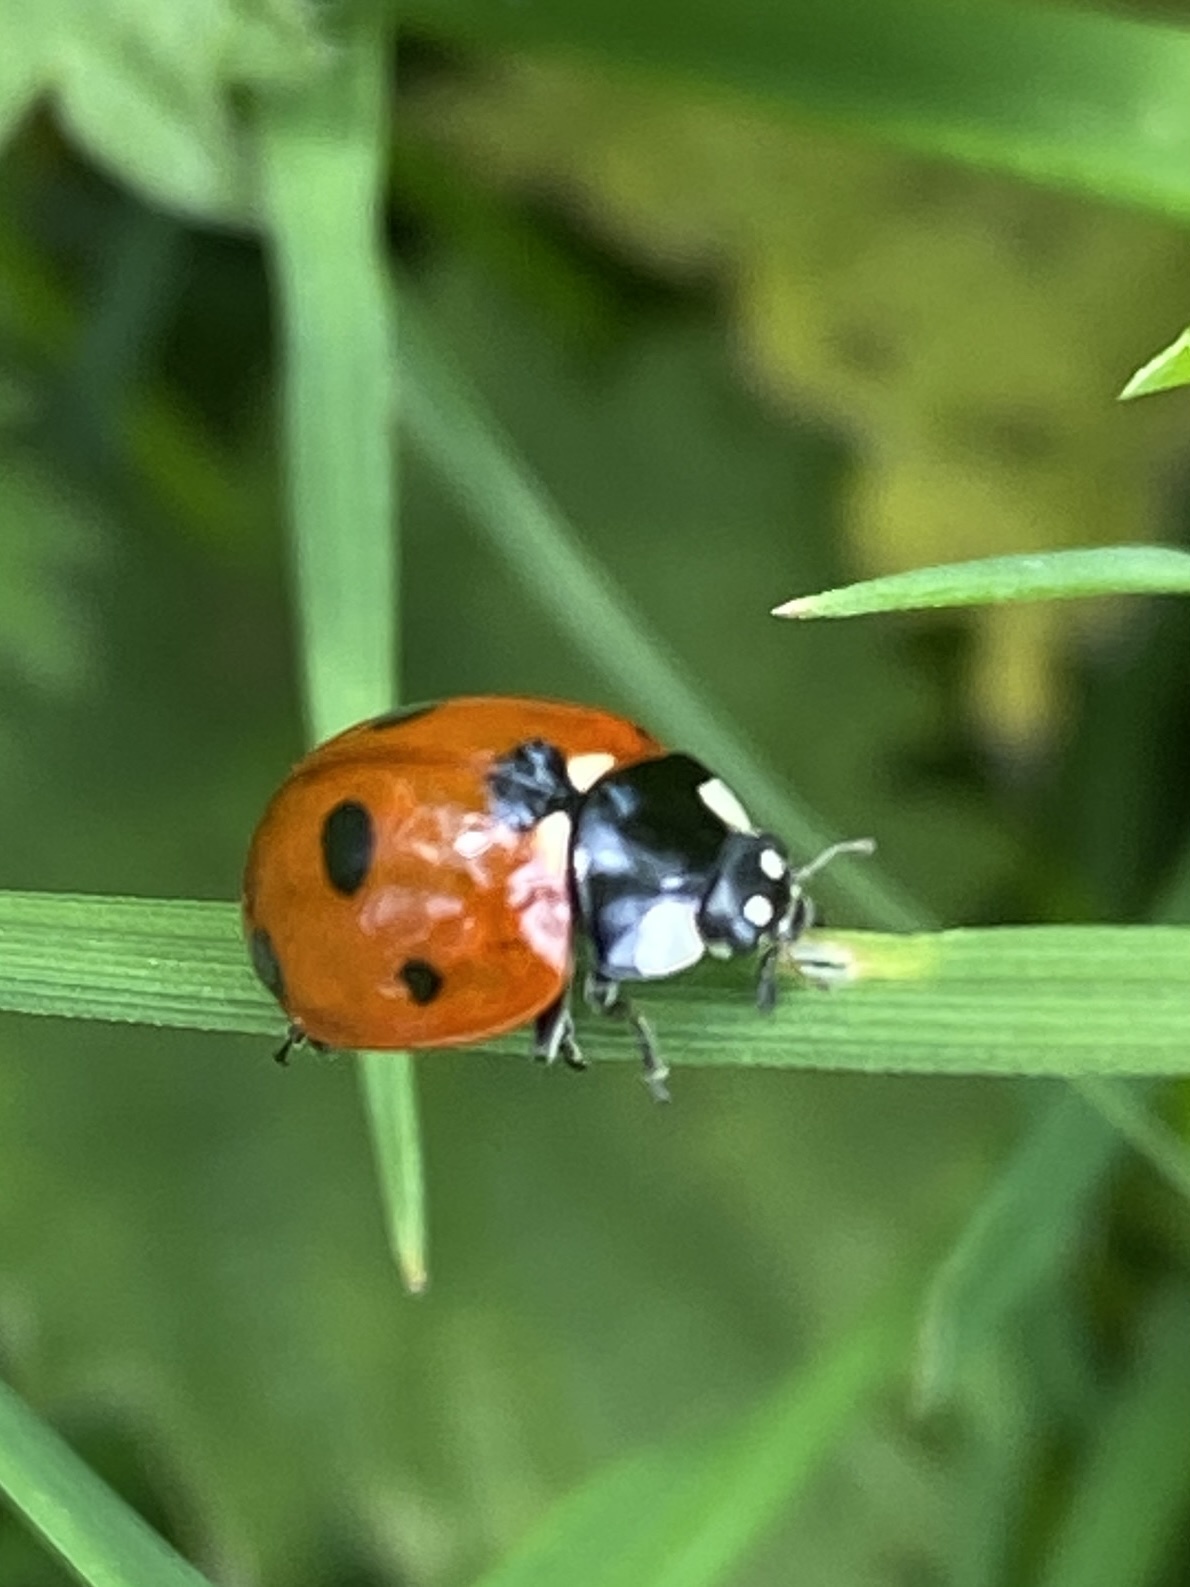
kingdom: Animalia
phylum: Arthropoda
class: Insecta
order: Coleoptera
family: Coccinellidae
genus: Coccinella
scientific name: Coccinella septempunctata
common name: Sevenspotted lady beetle
